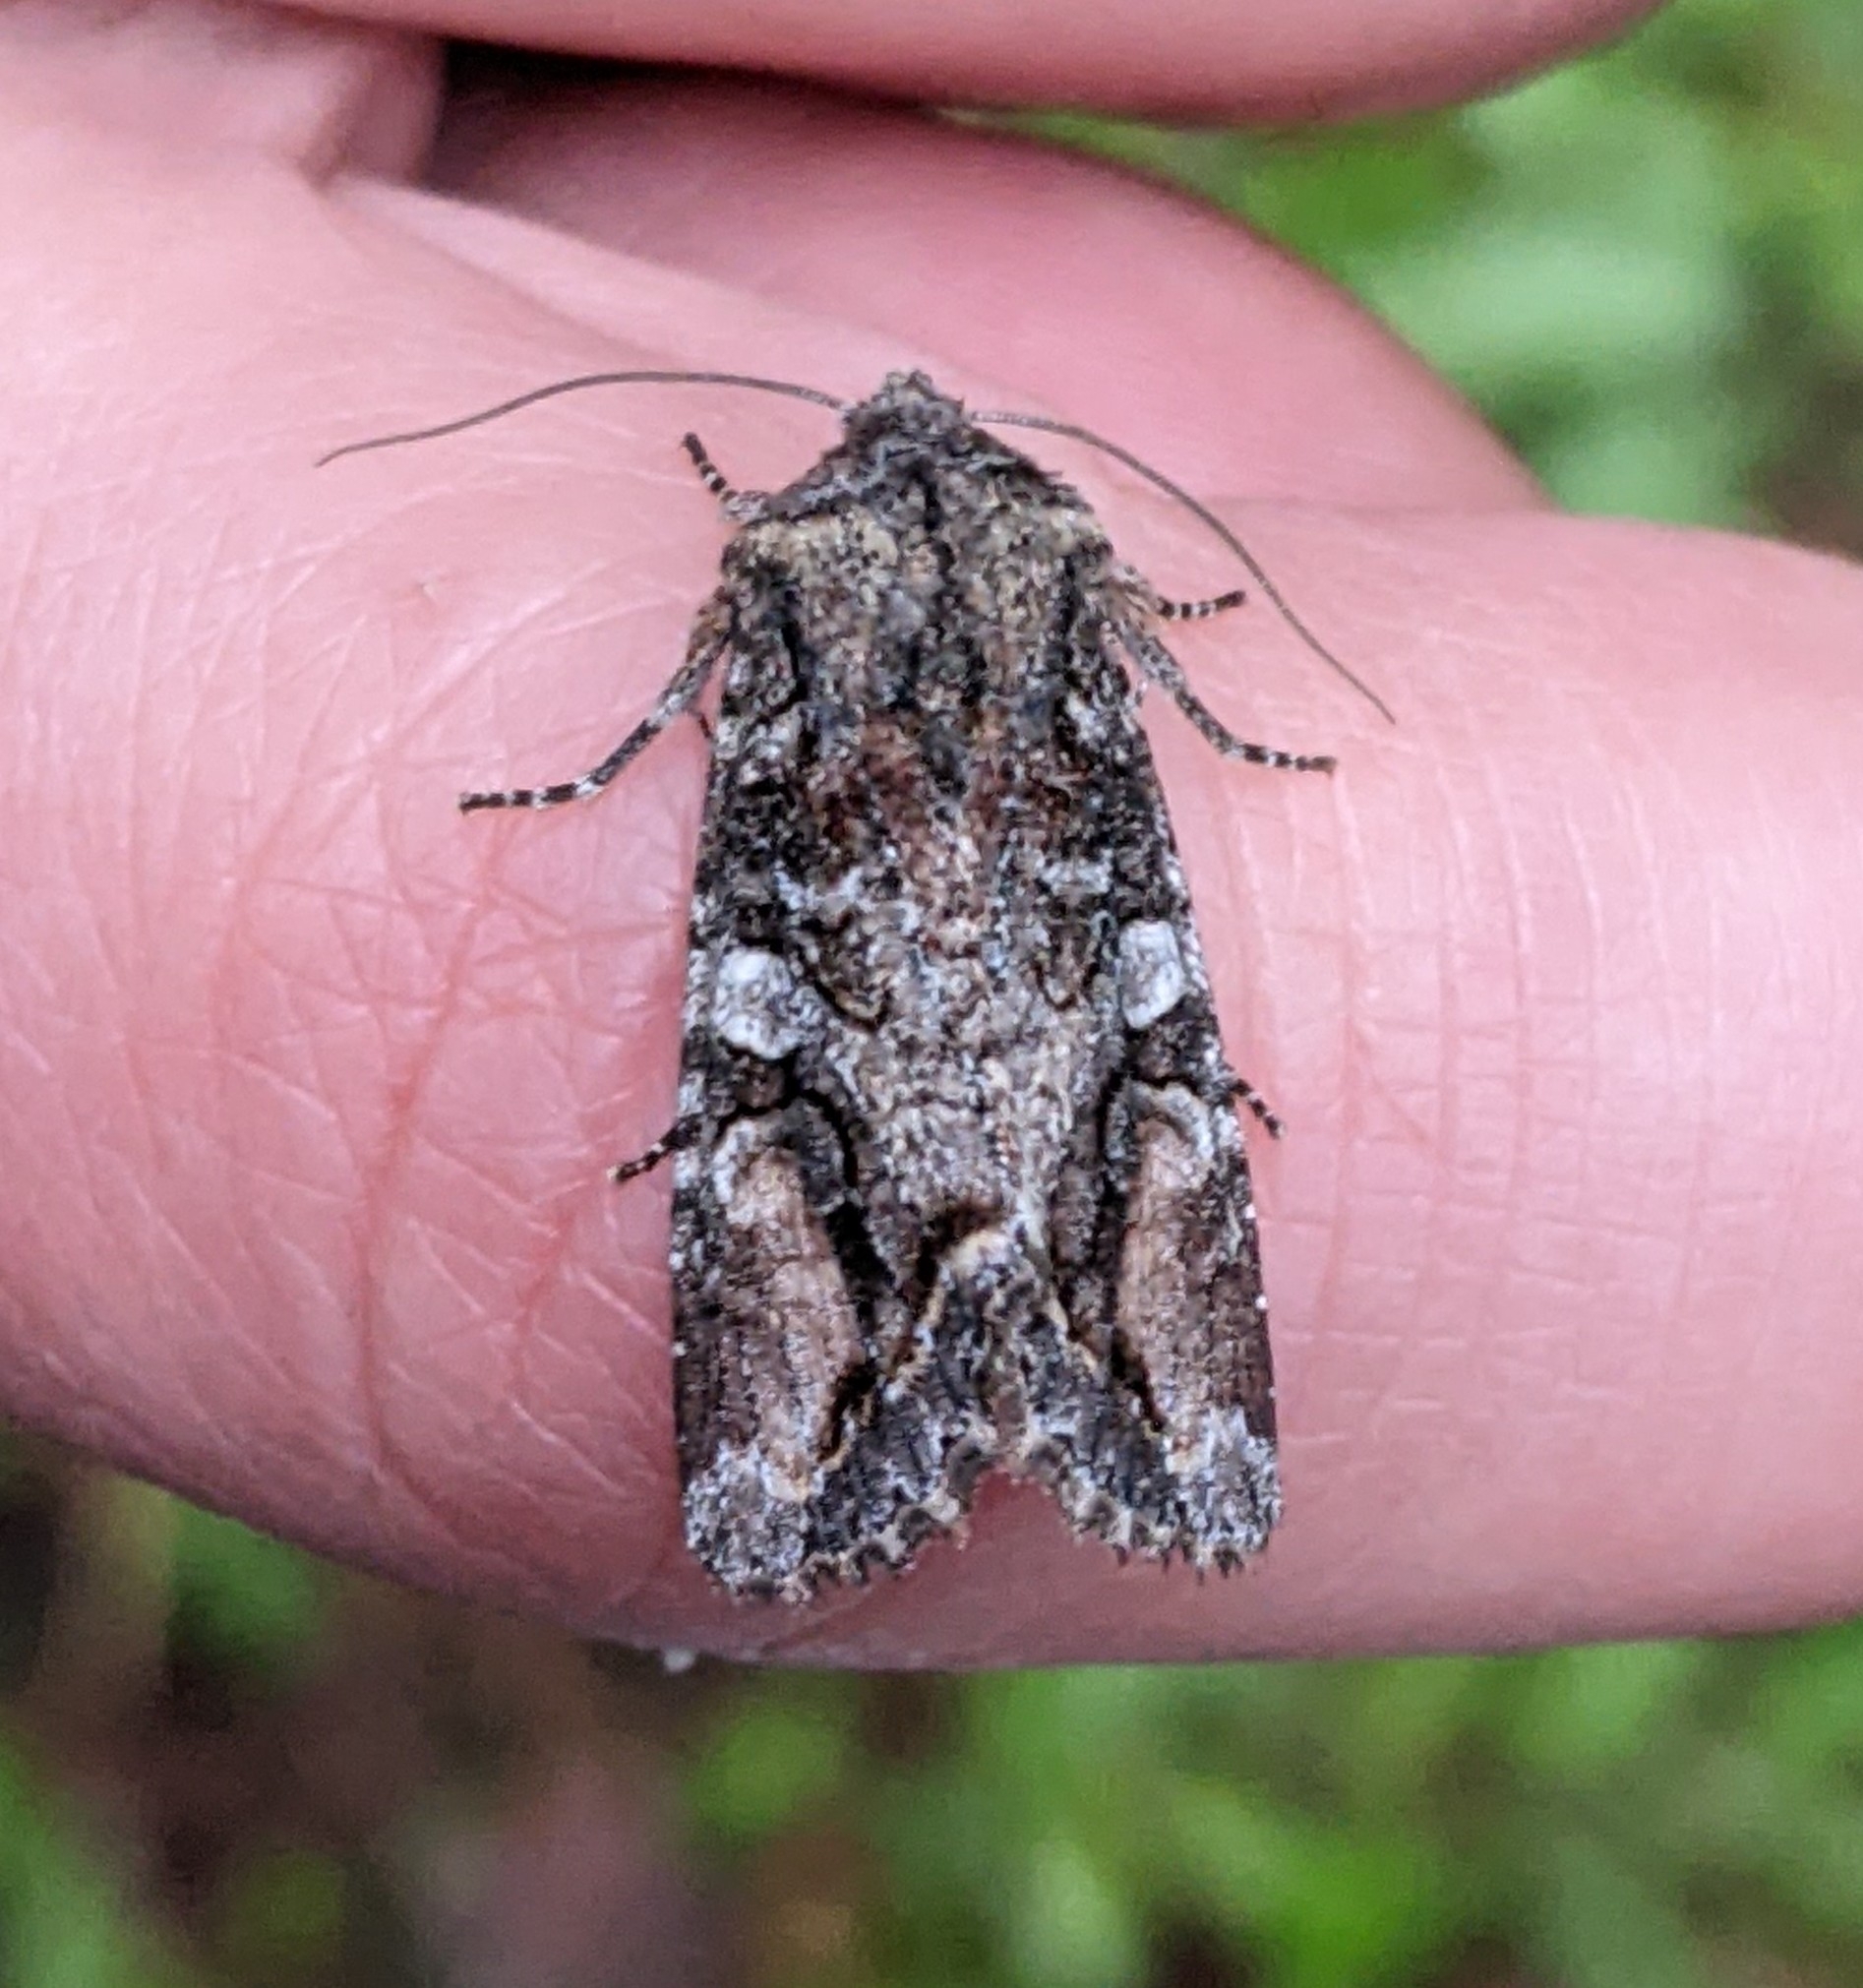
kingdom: Animalia
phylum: Arthropoda
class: Insecta
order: Lepidoptera
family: Noctuidae
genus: Egira
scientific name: Egira perlubens
